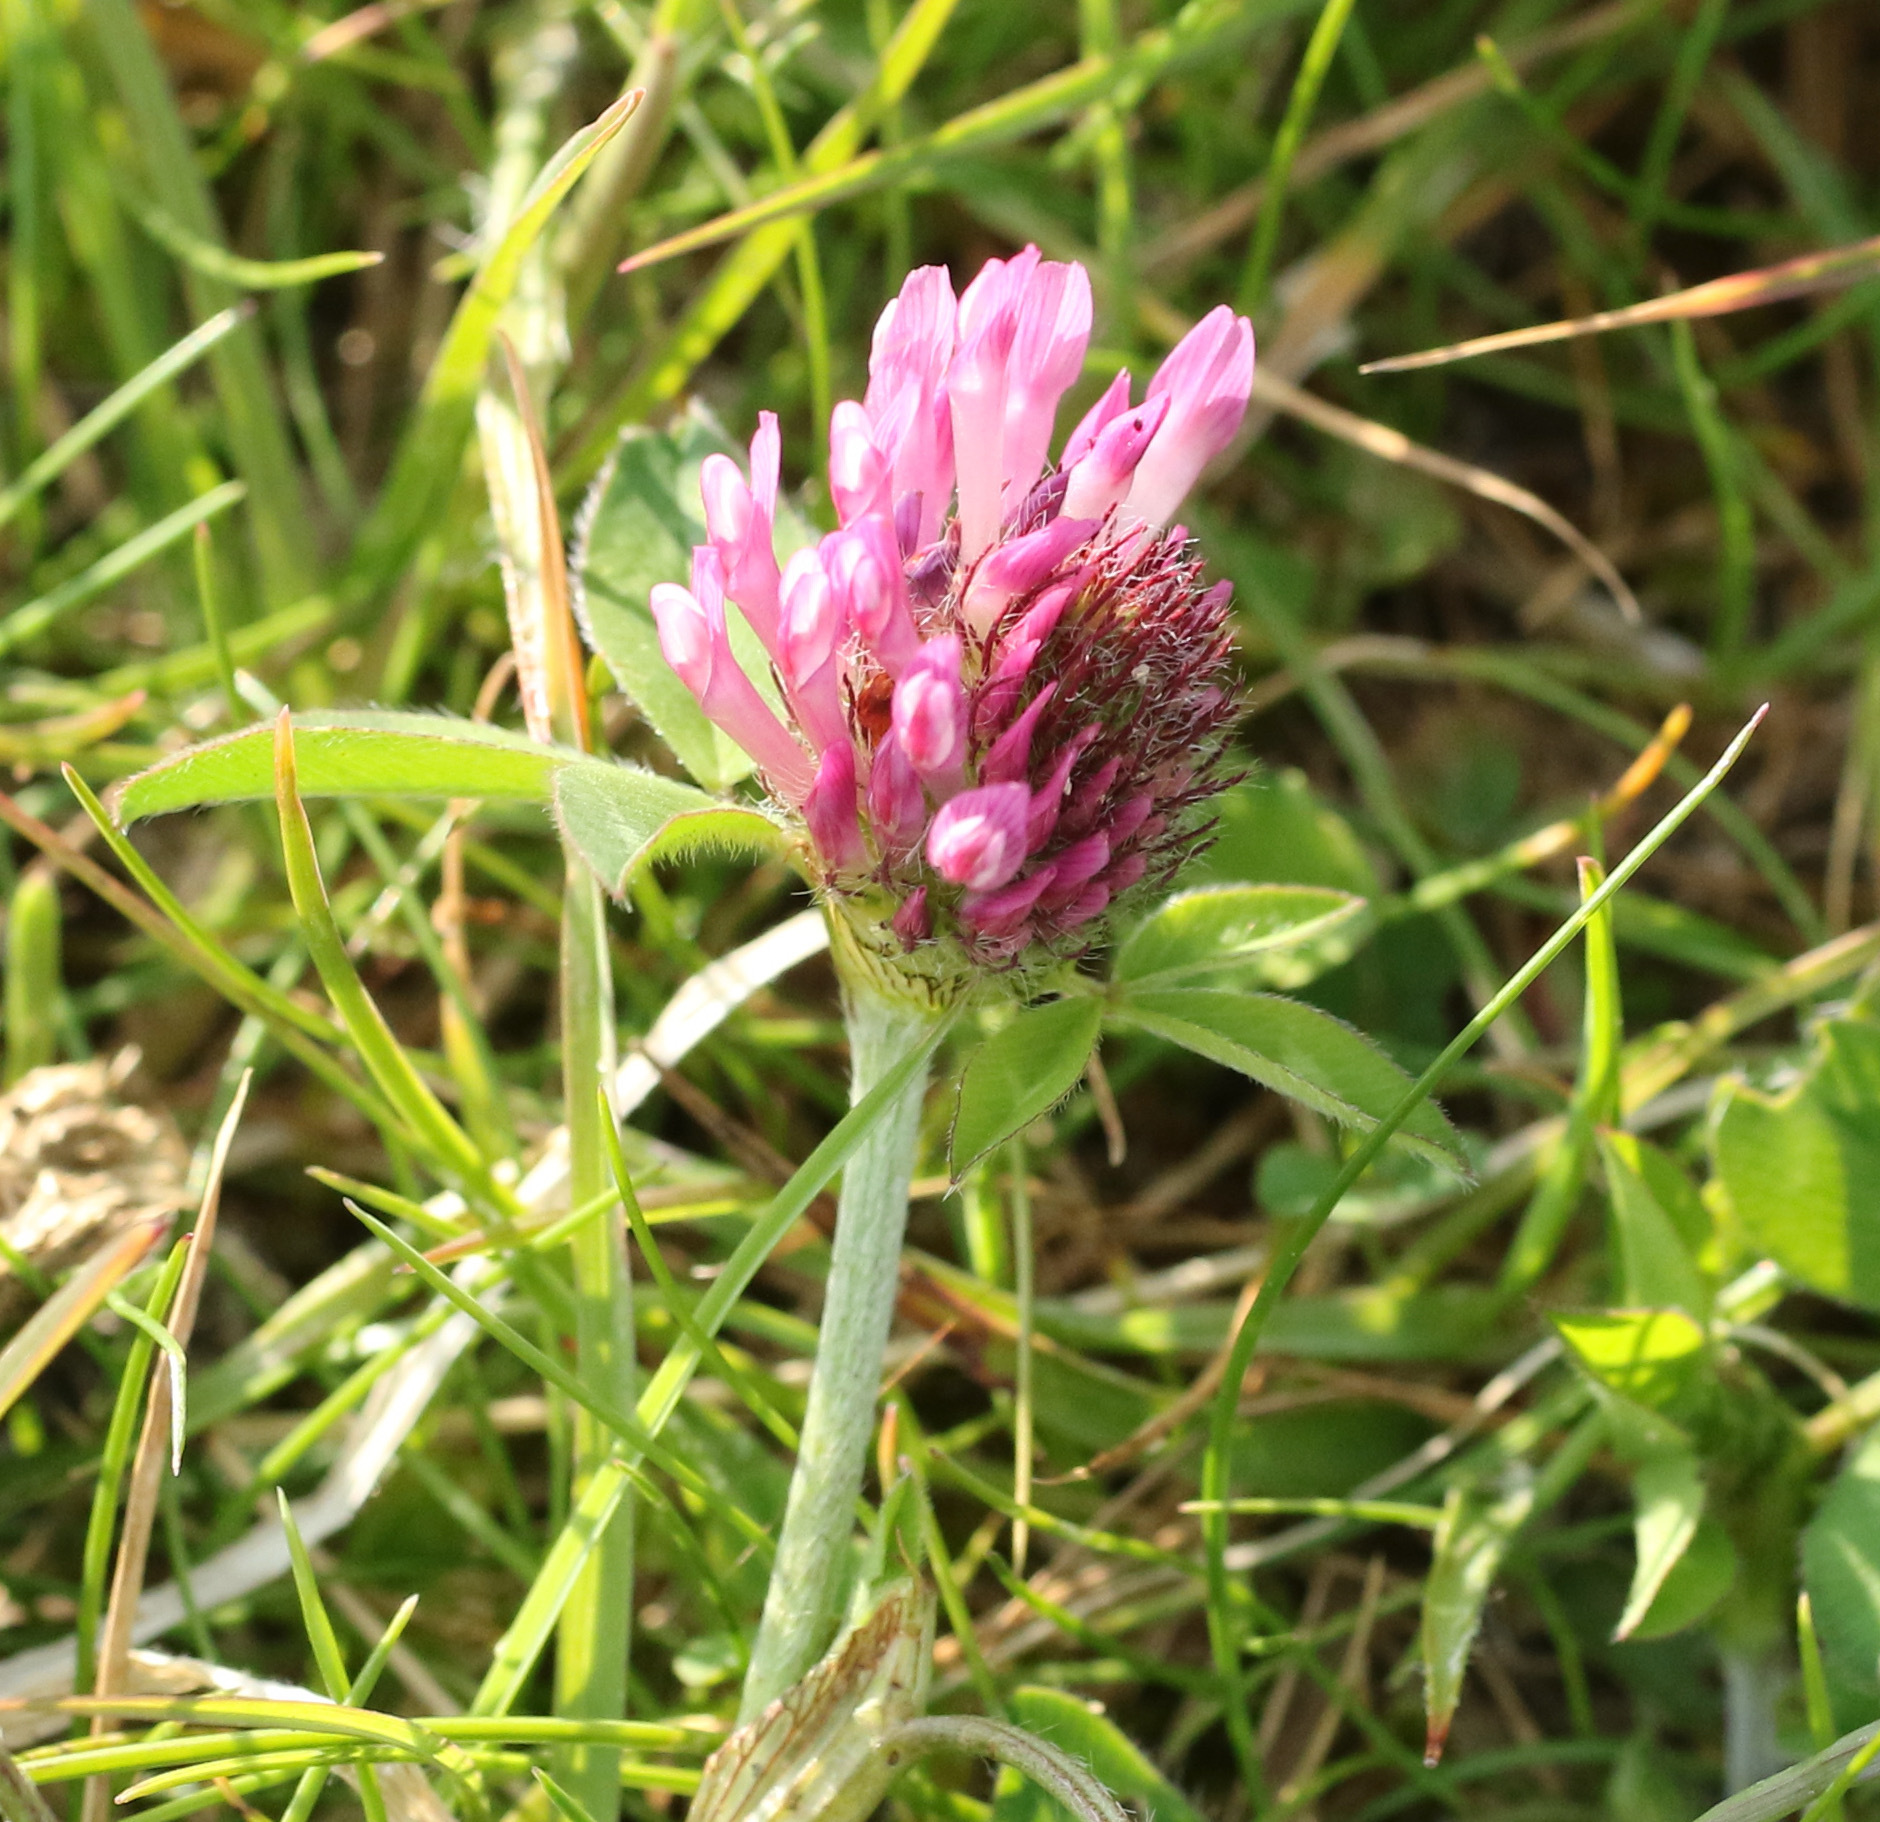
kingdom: Plantae
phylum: Tracheophyta
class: Magnoliopsida
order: Fabales
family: Fabaceae
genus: Trifolium
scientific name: Trifolium pratense
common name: Red clover
